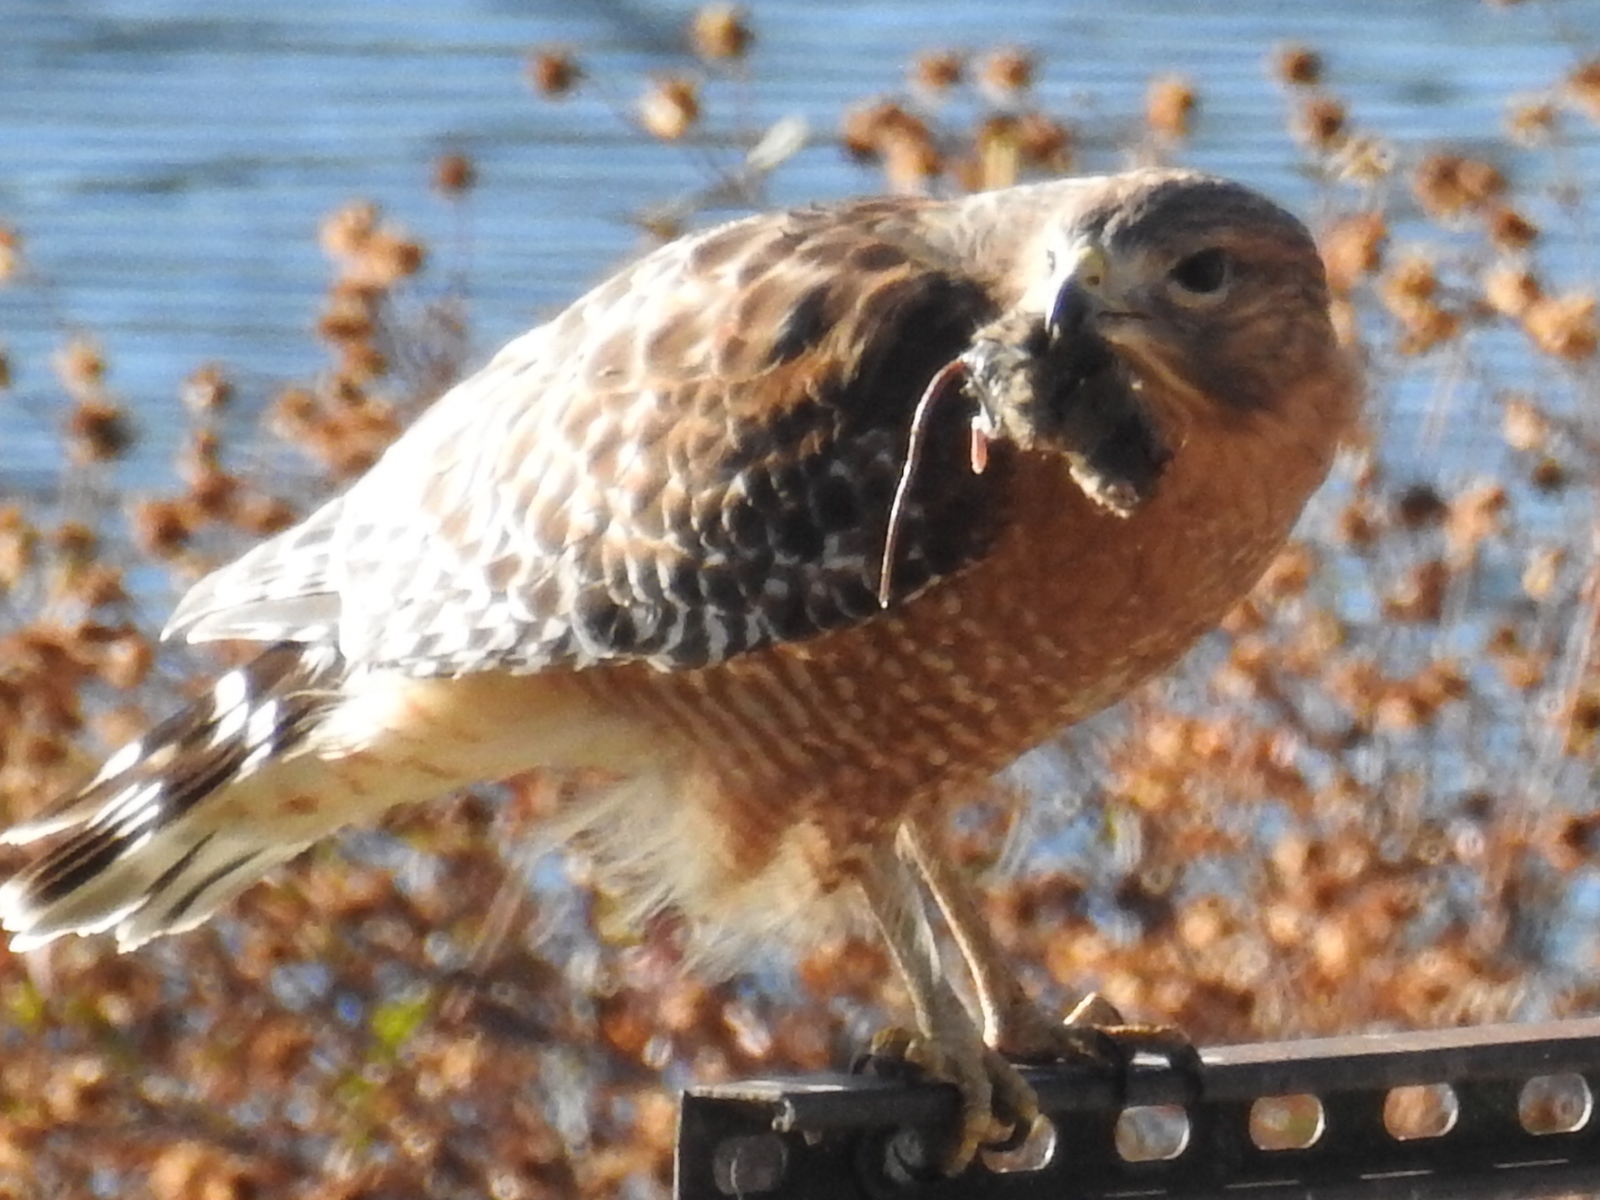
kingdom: Animalia
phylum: Chordata
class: Aves
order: Accipitriformes
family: Accipitridae
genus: Buteo
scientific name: Buteo lineatus
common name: Red-shouldered hawk
